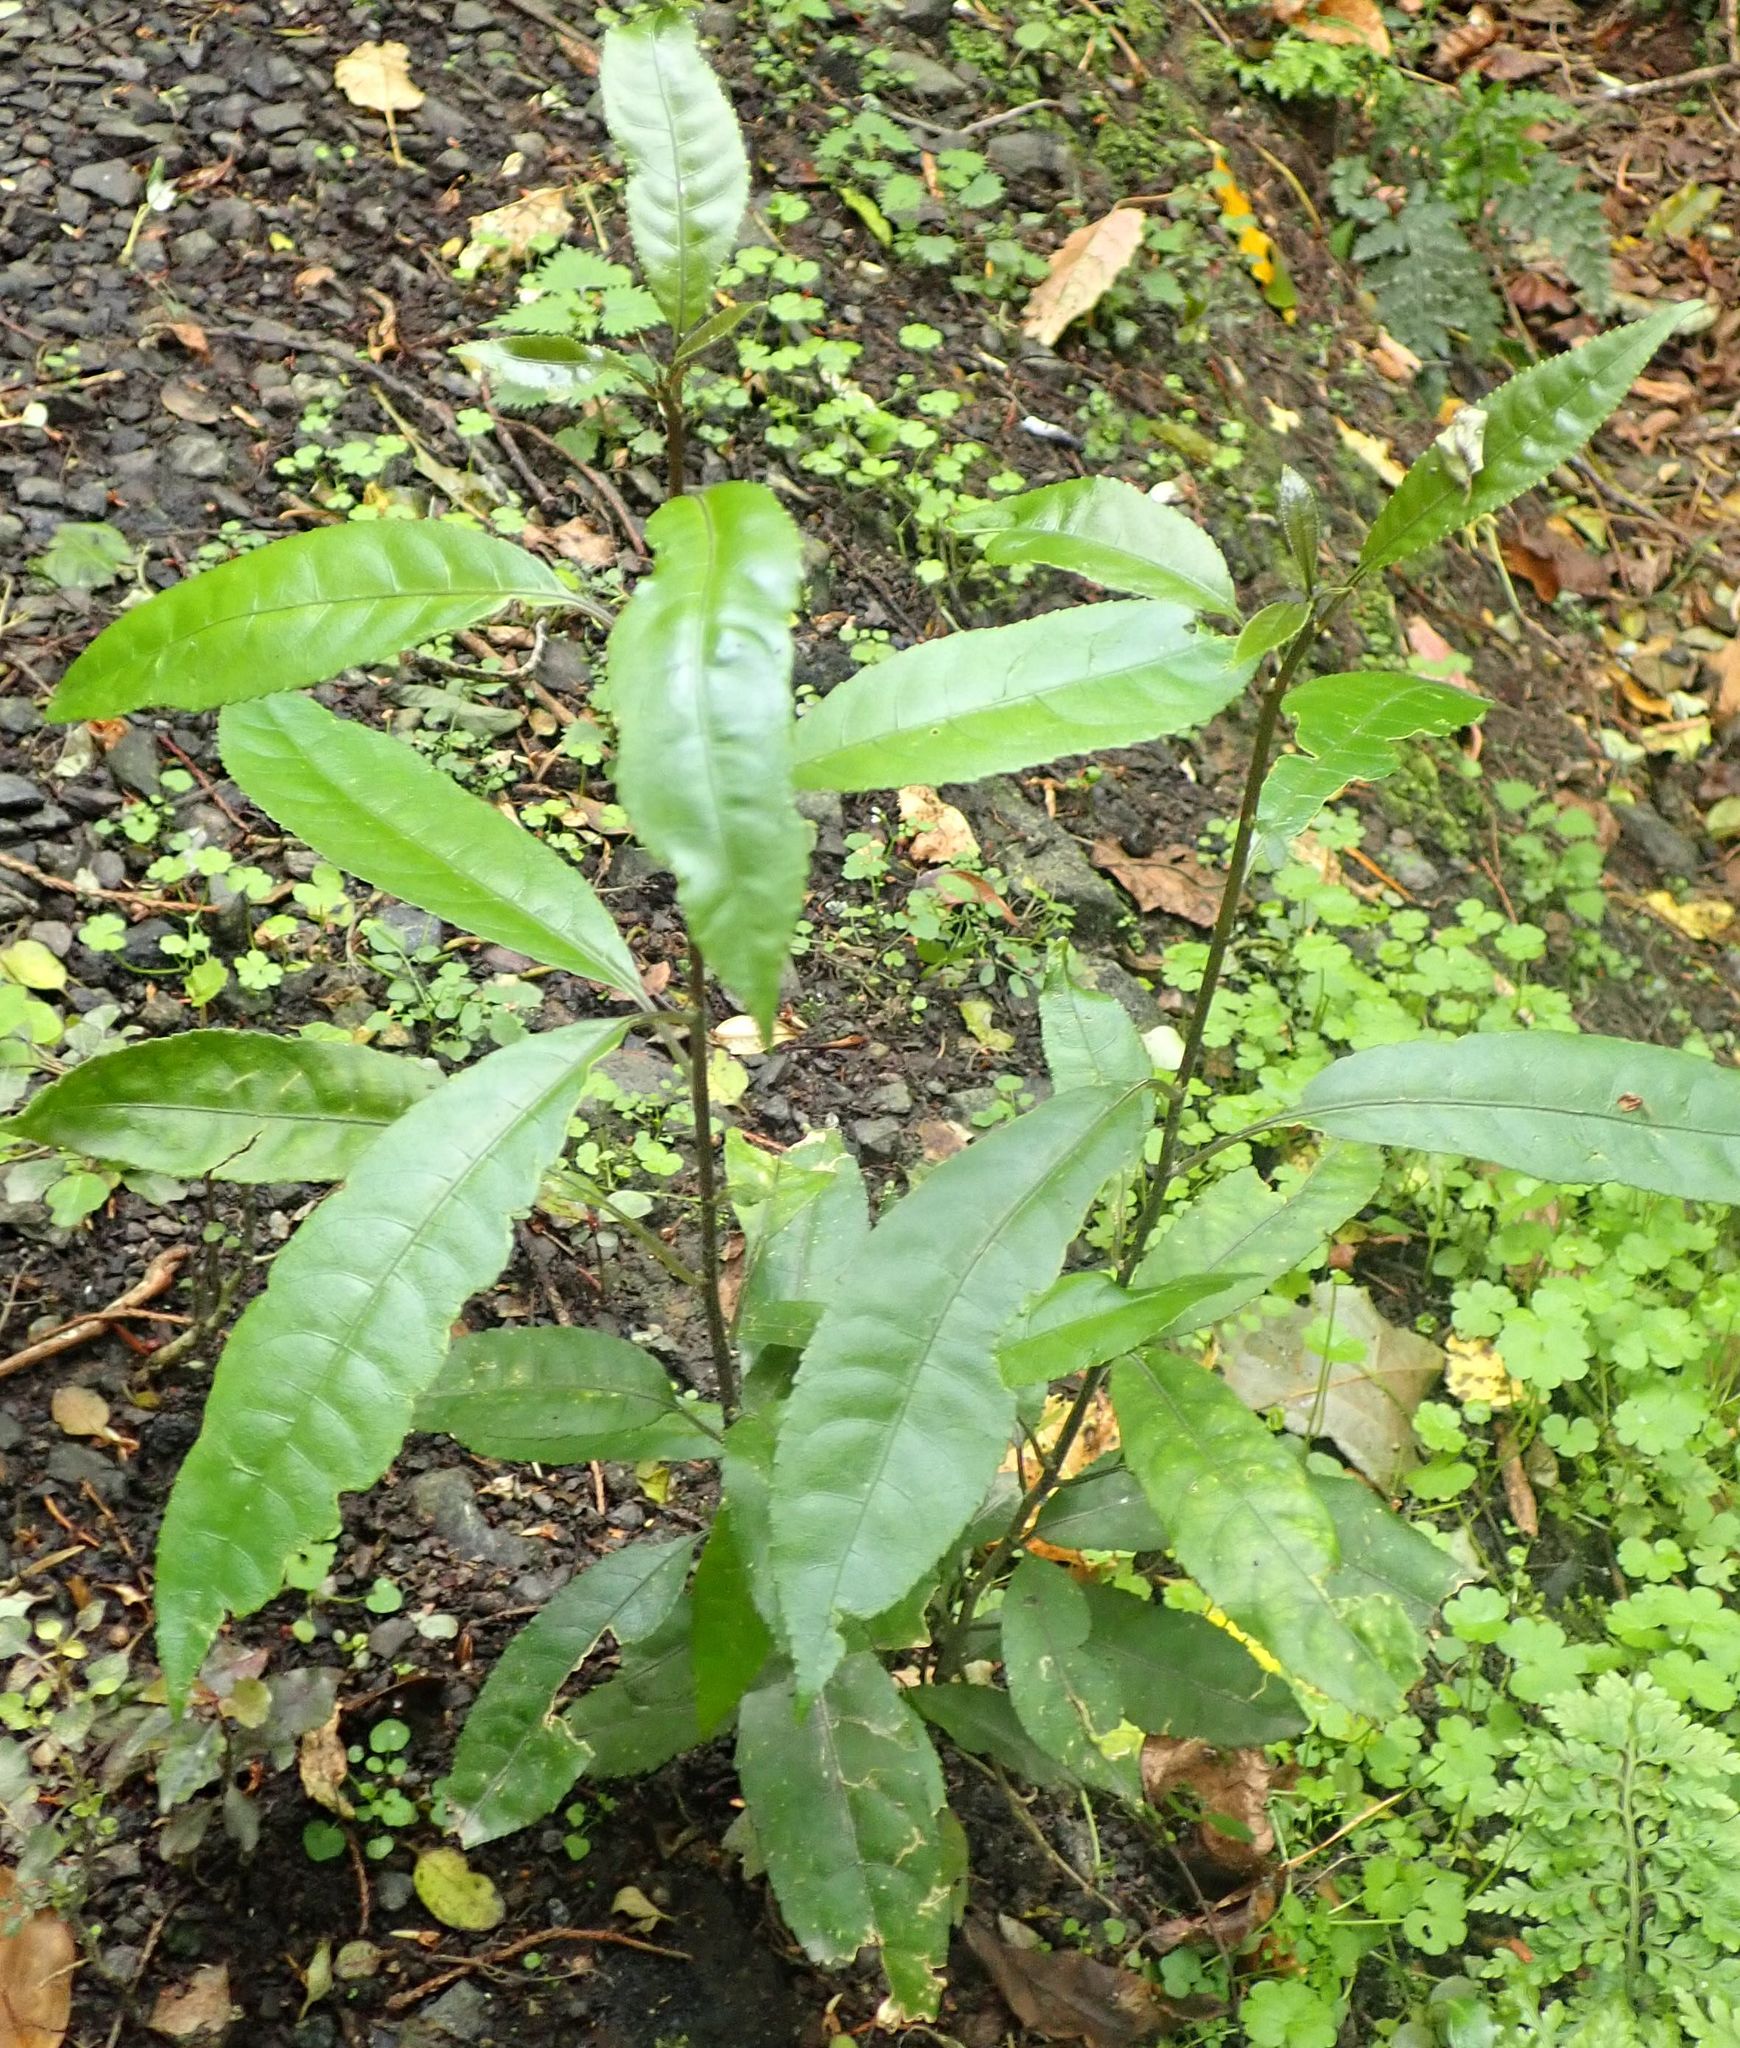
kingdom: Plantae
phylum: Tracheophyta
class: Magnoliopsida
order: Malpighiales
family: Violaceae
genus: Melicytus
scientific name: Melicytus ramiflorus
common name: Mahoe
